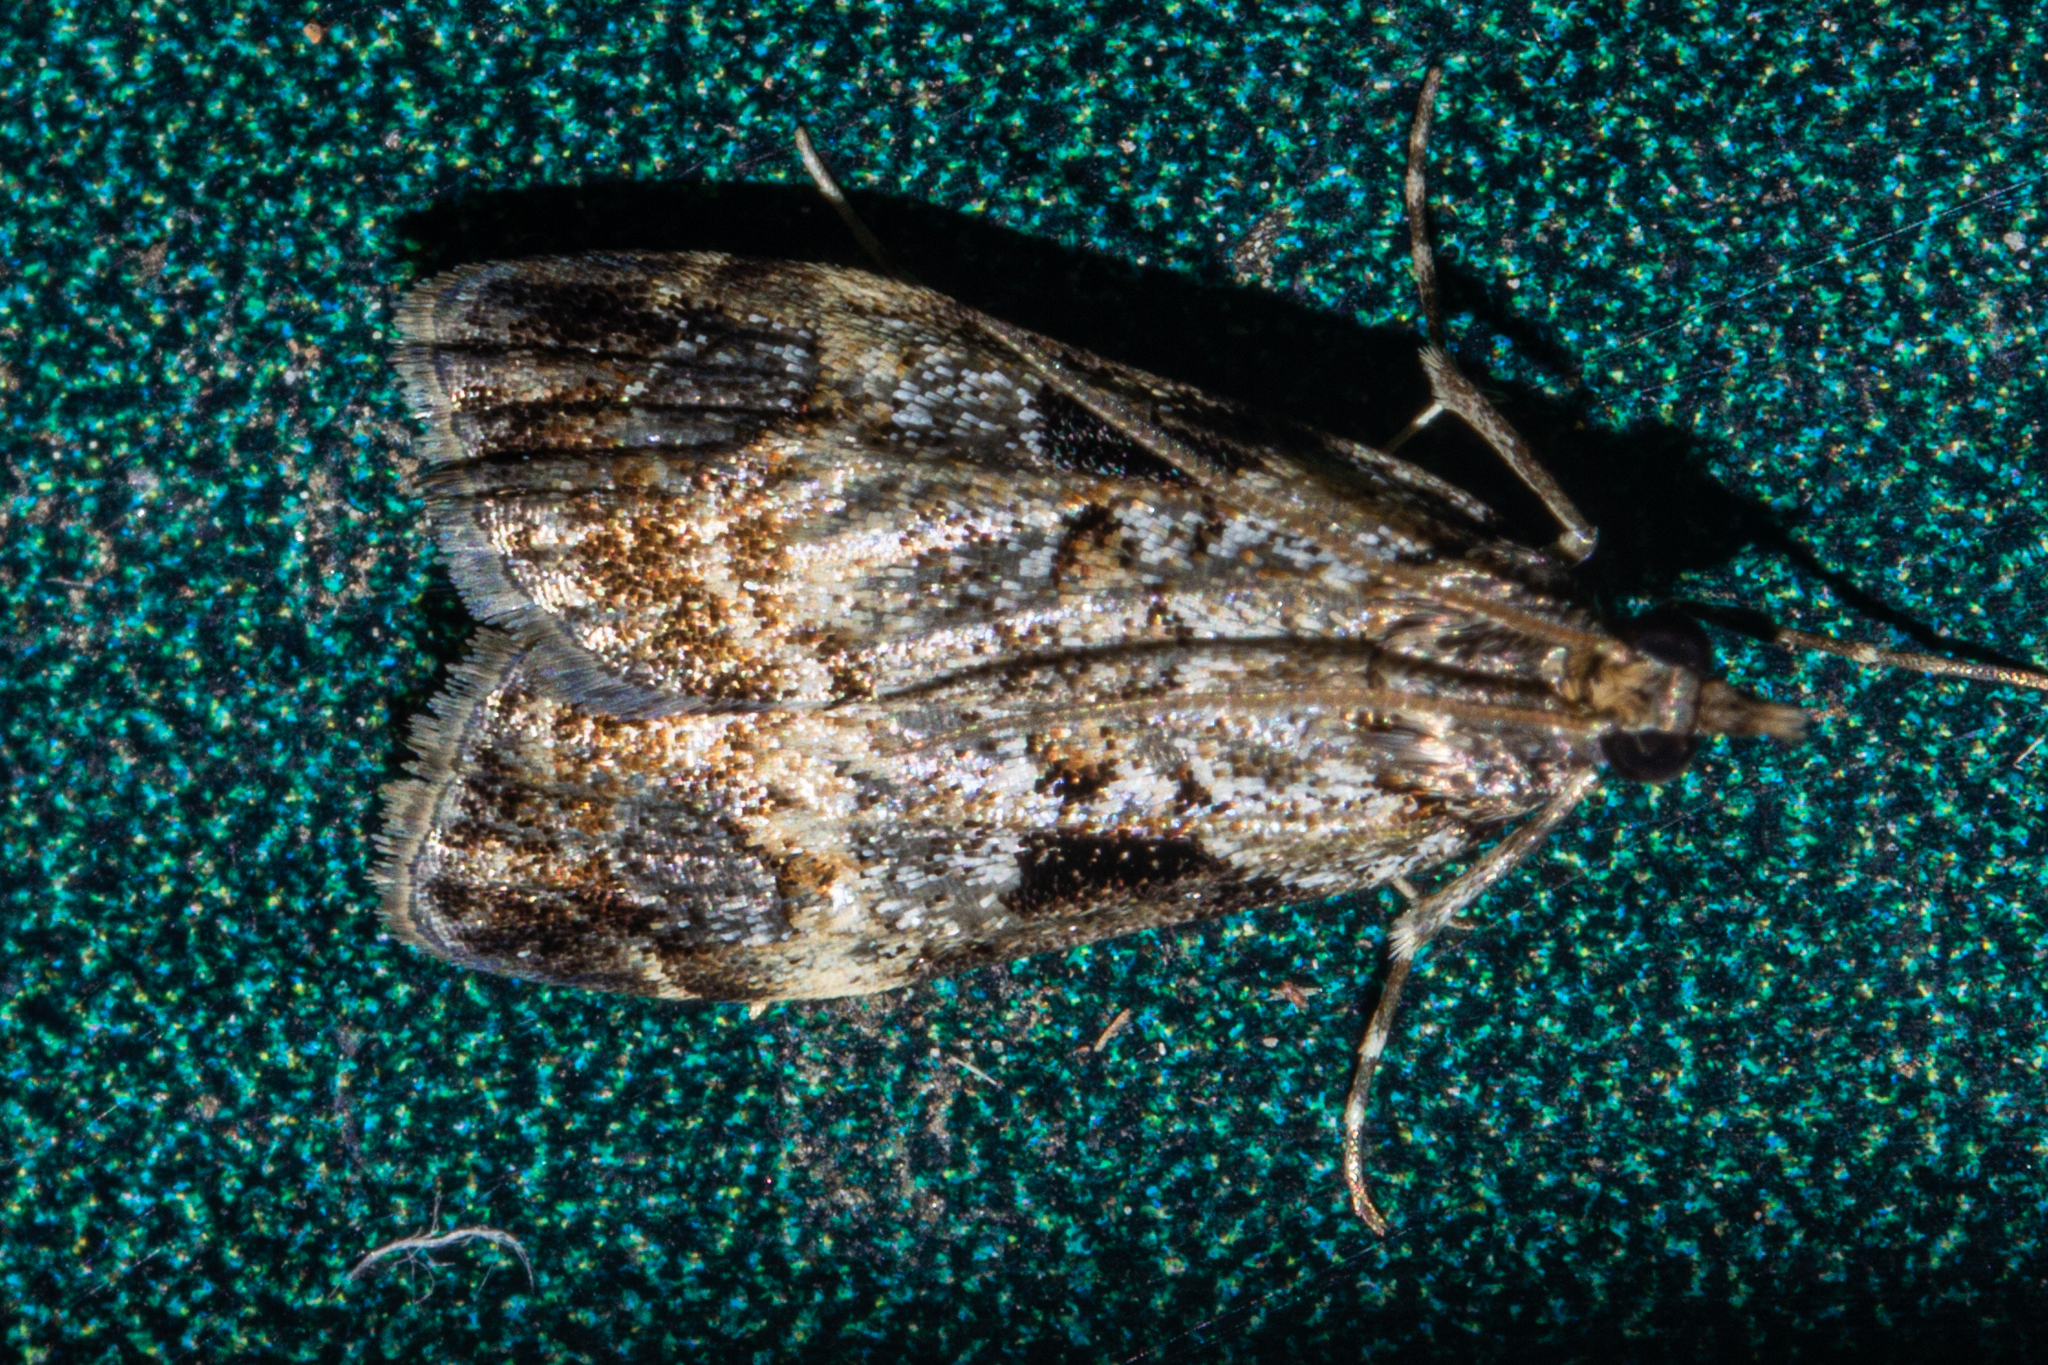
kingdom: Animalia
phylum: Arthropoda
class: Insecta
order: Lepidoptera
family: Crambidae
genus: Scoparia
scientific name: Scoparia acharis
